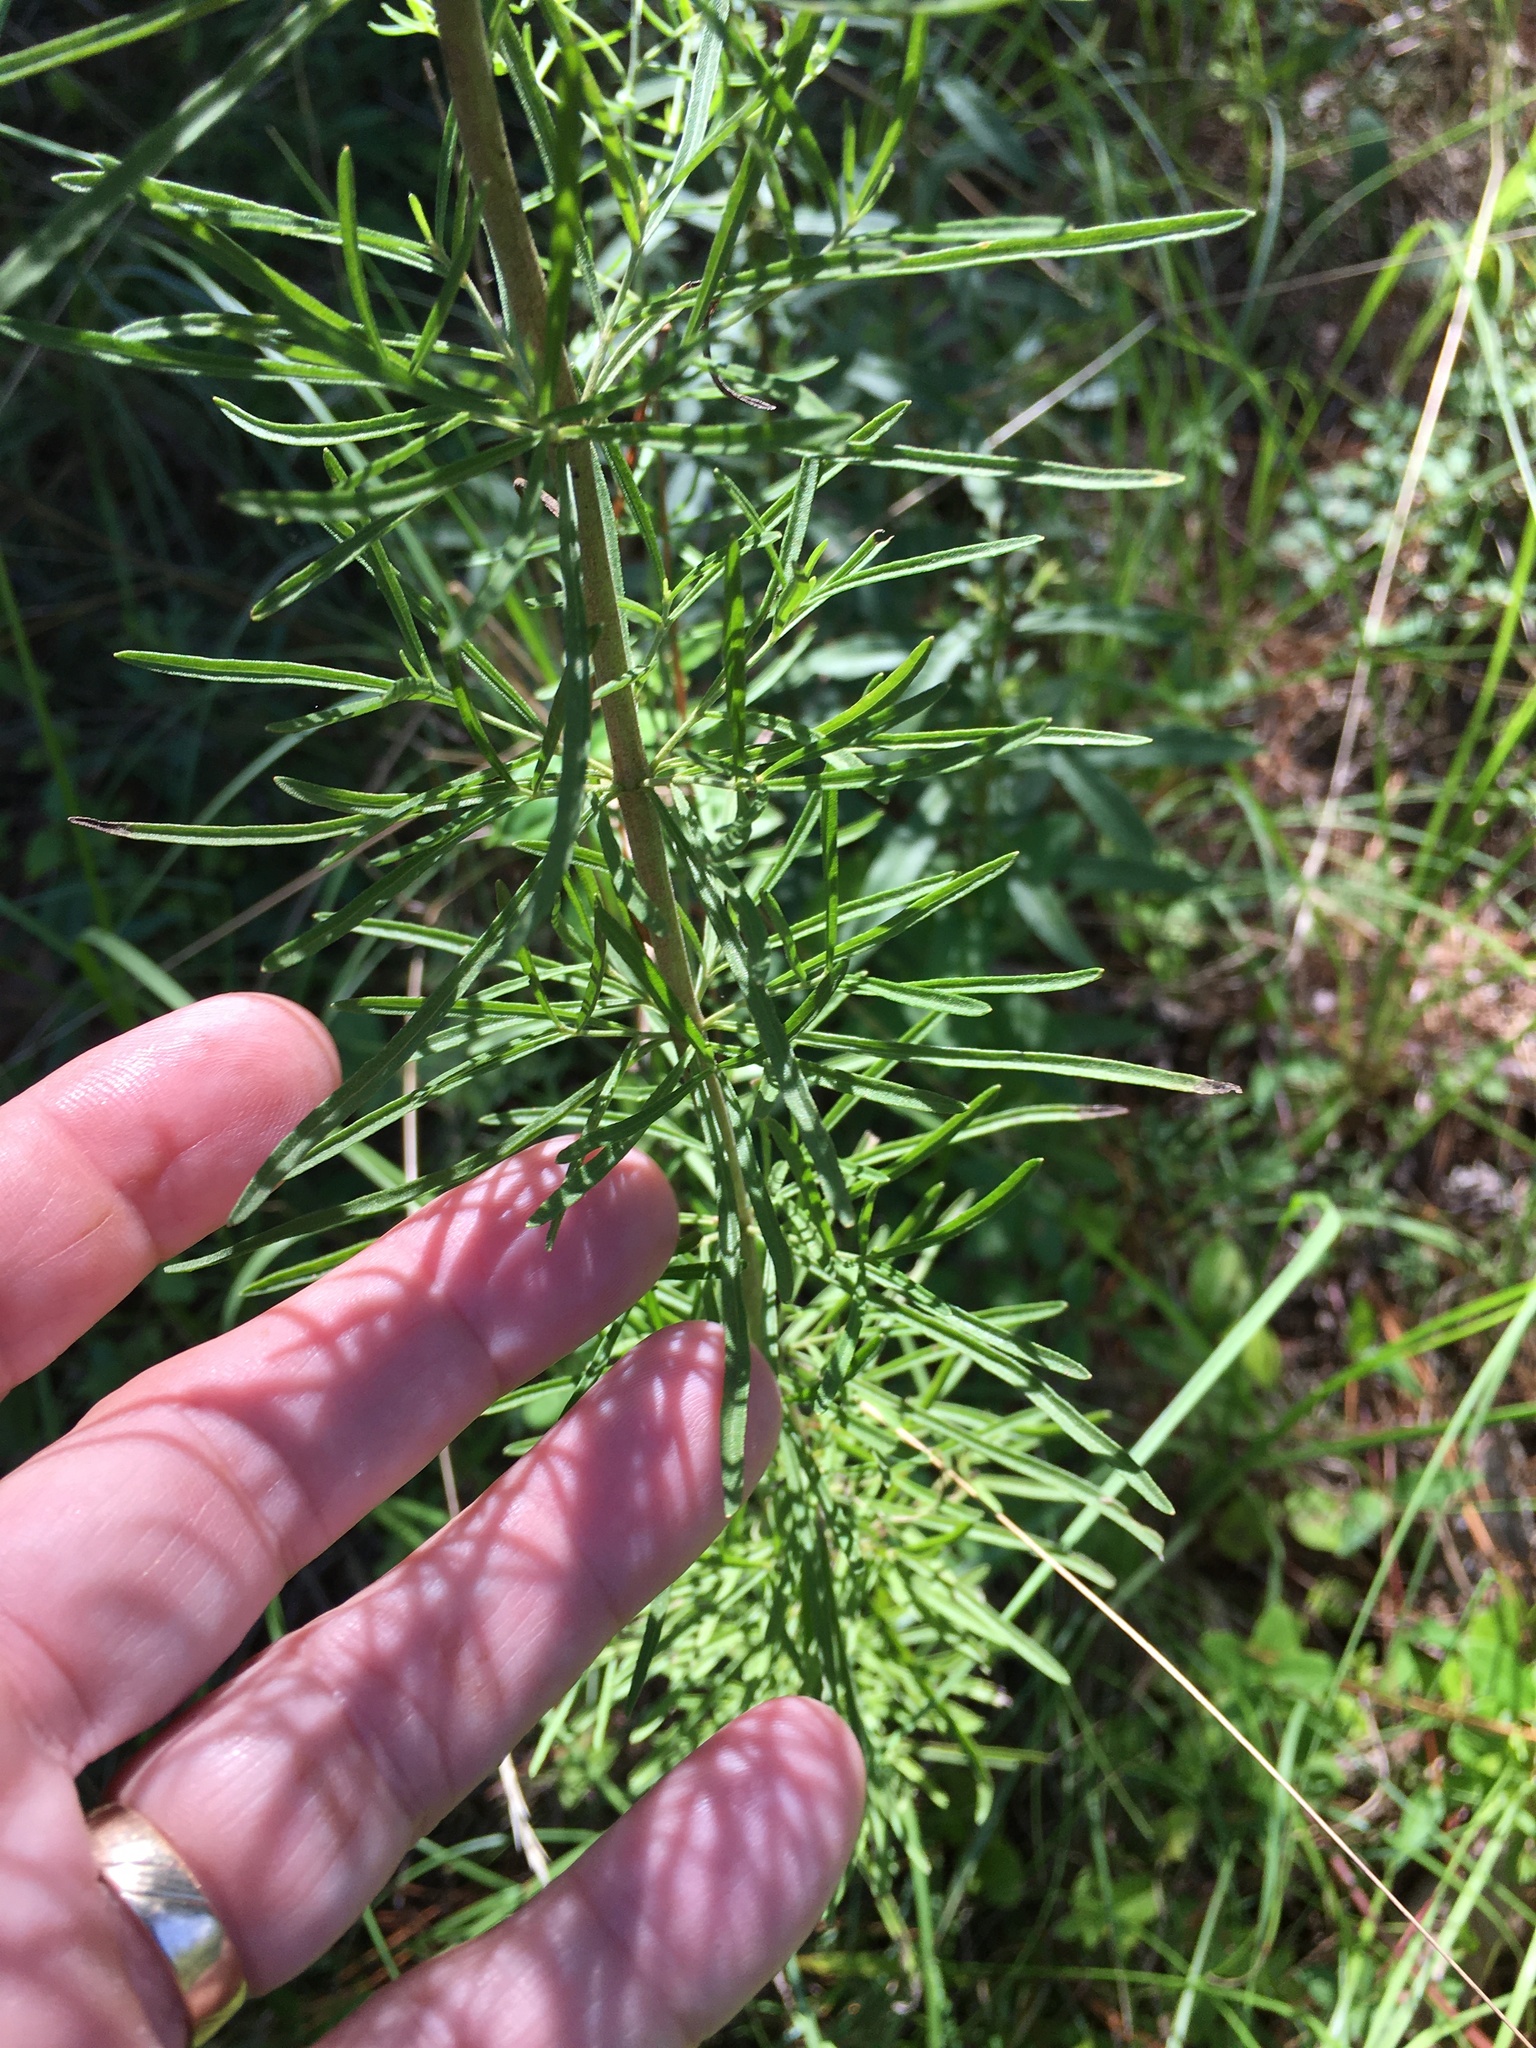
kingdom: Plantae
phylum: Tracheophyta
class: Magnoliopsida
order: Asterales
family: Asteraceae
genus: Eupatorium
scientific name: Eupatorium hyssopifolium
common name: Hyssop-leaf thoroughwort
